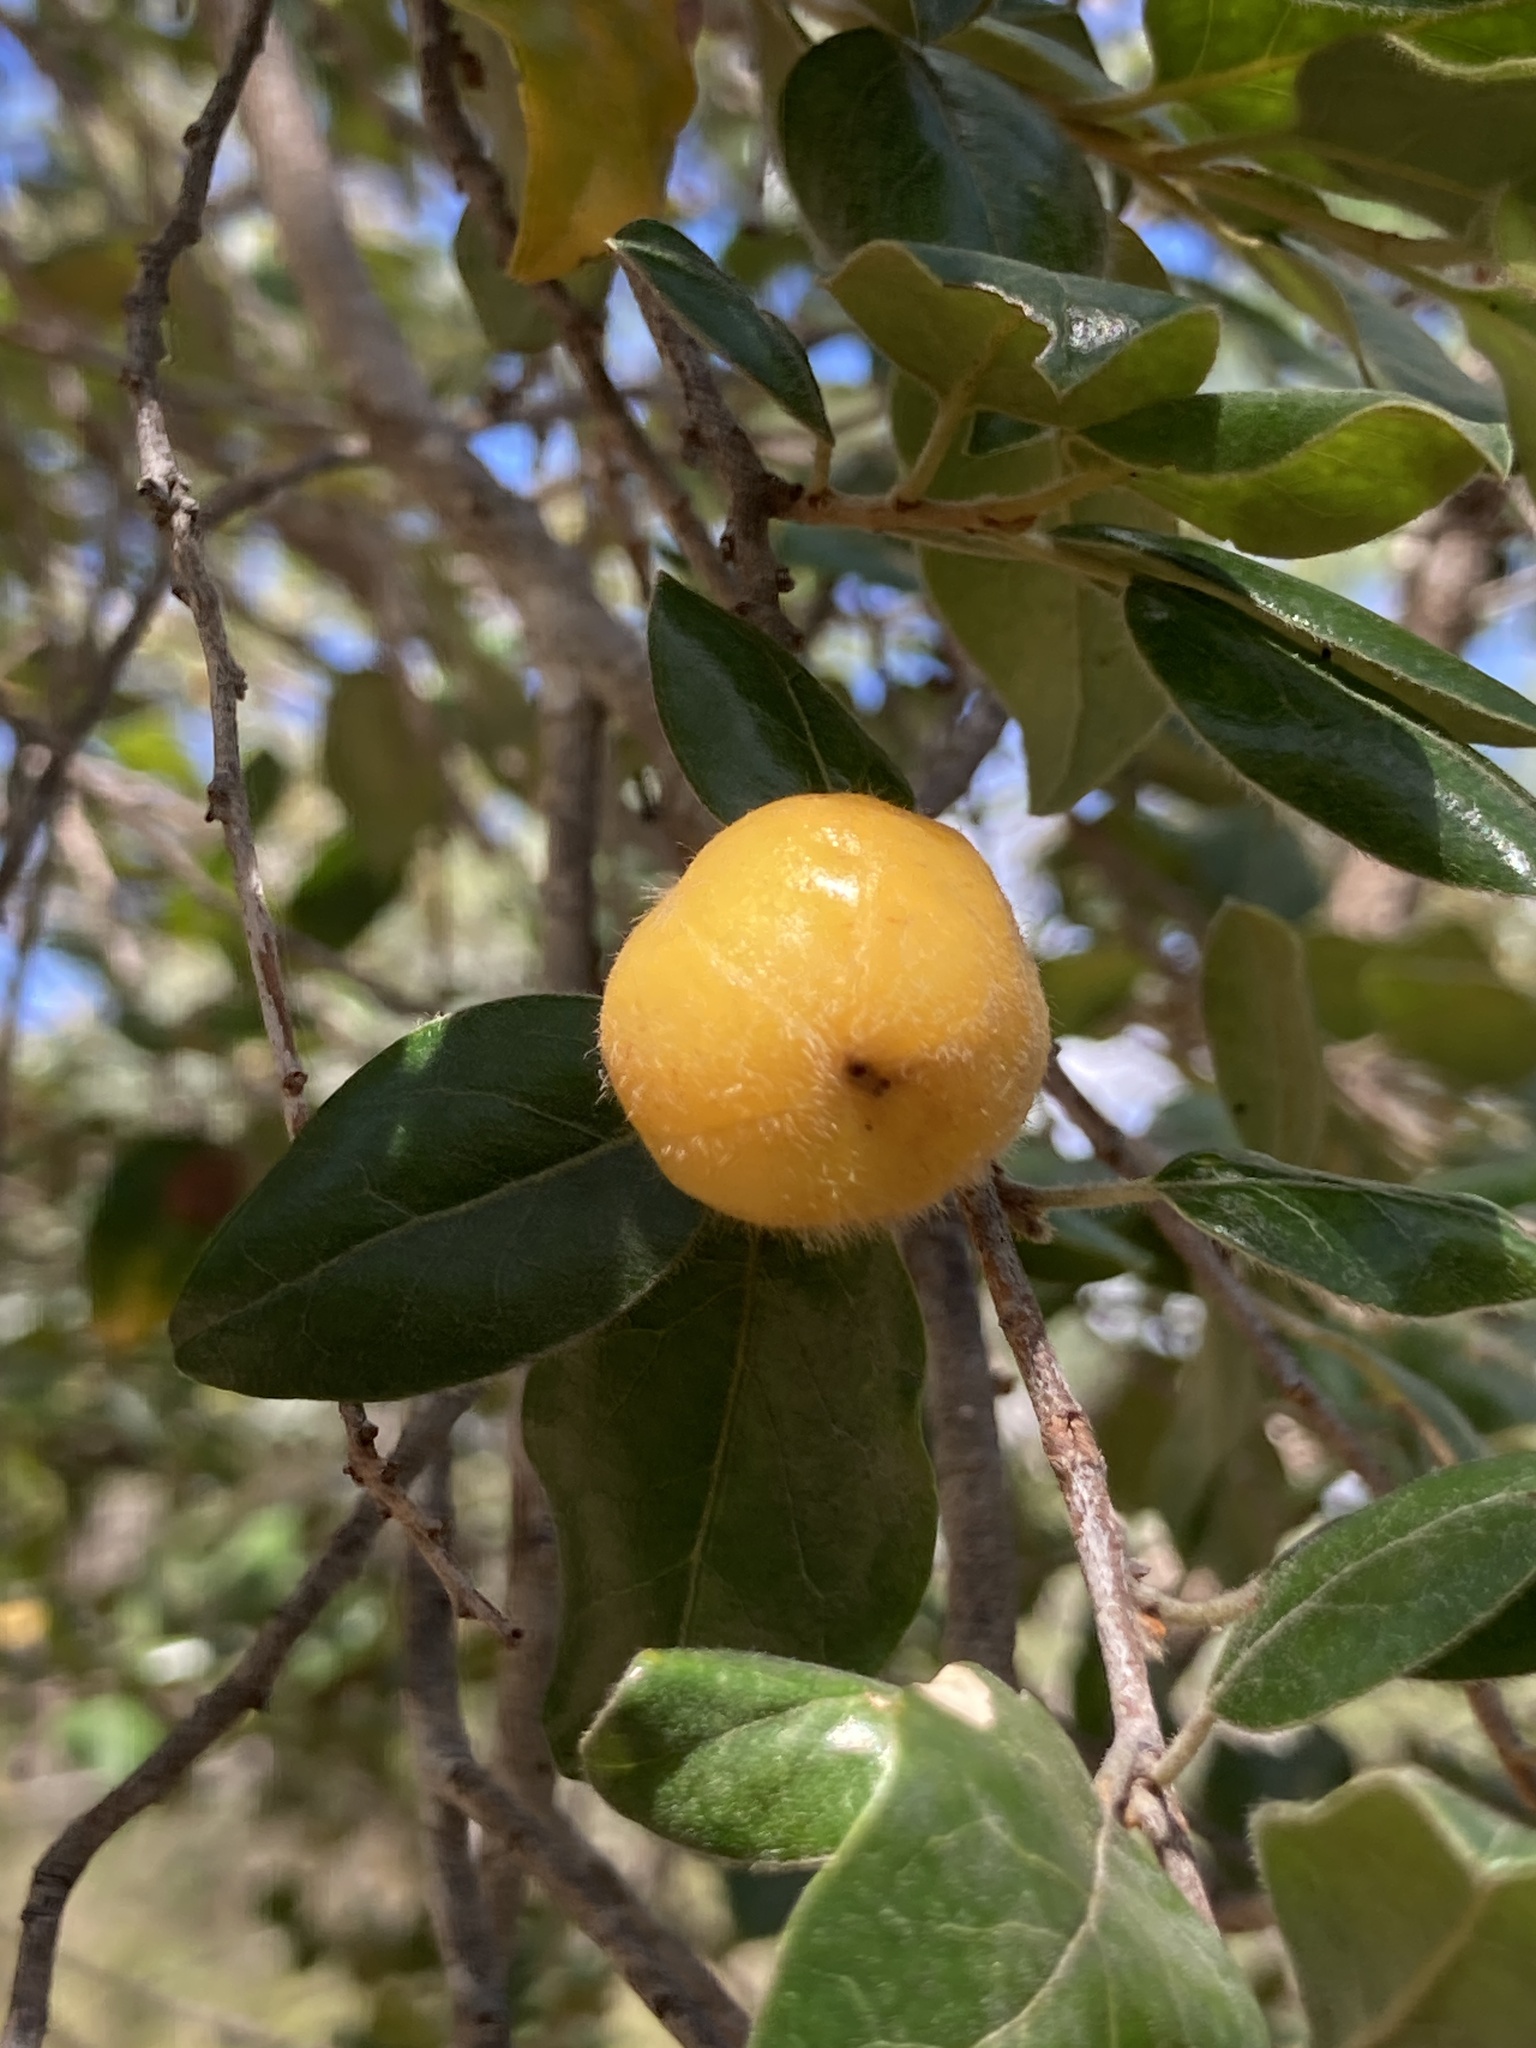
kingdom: Plantae
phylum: Tracheophyta
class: Magnoliopsida
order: Malpighiales
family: Picrodendraceae
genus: Petalostigma
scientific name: Petalostigma pubescens
